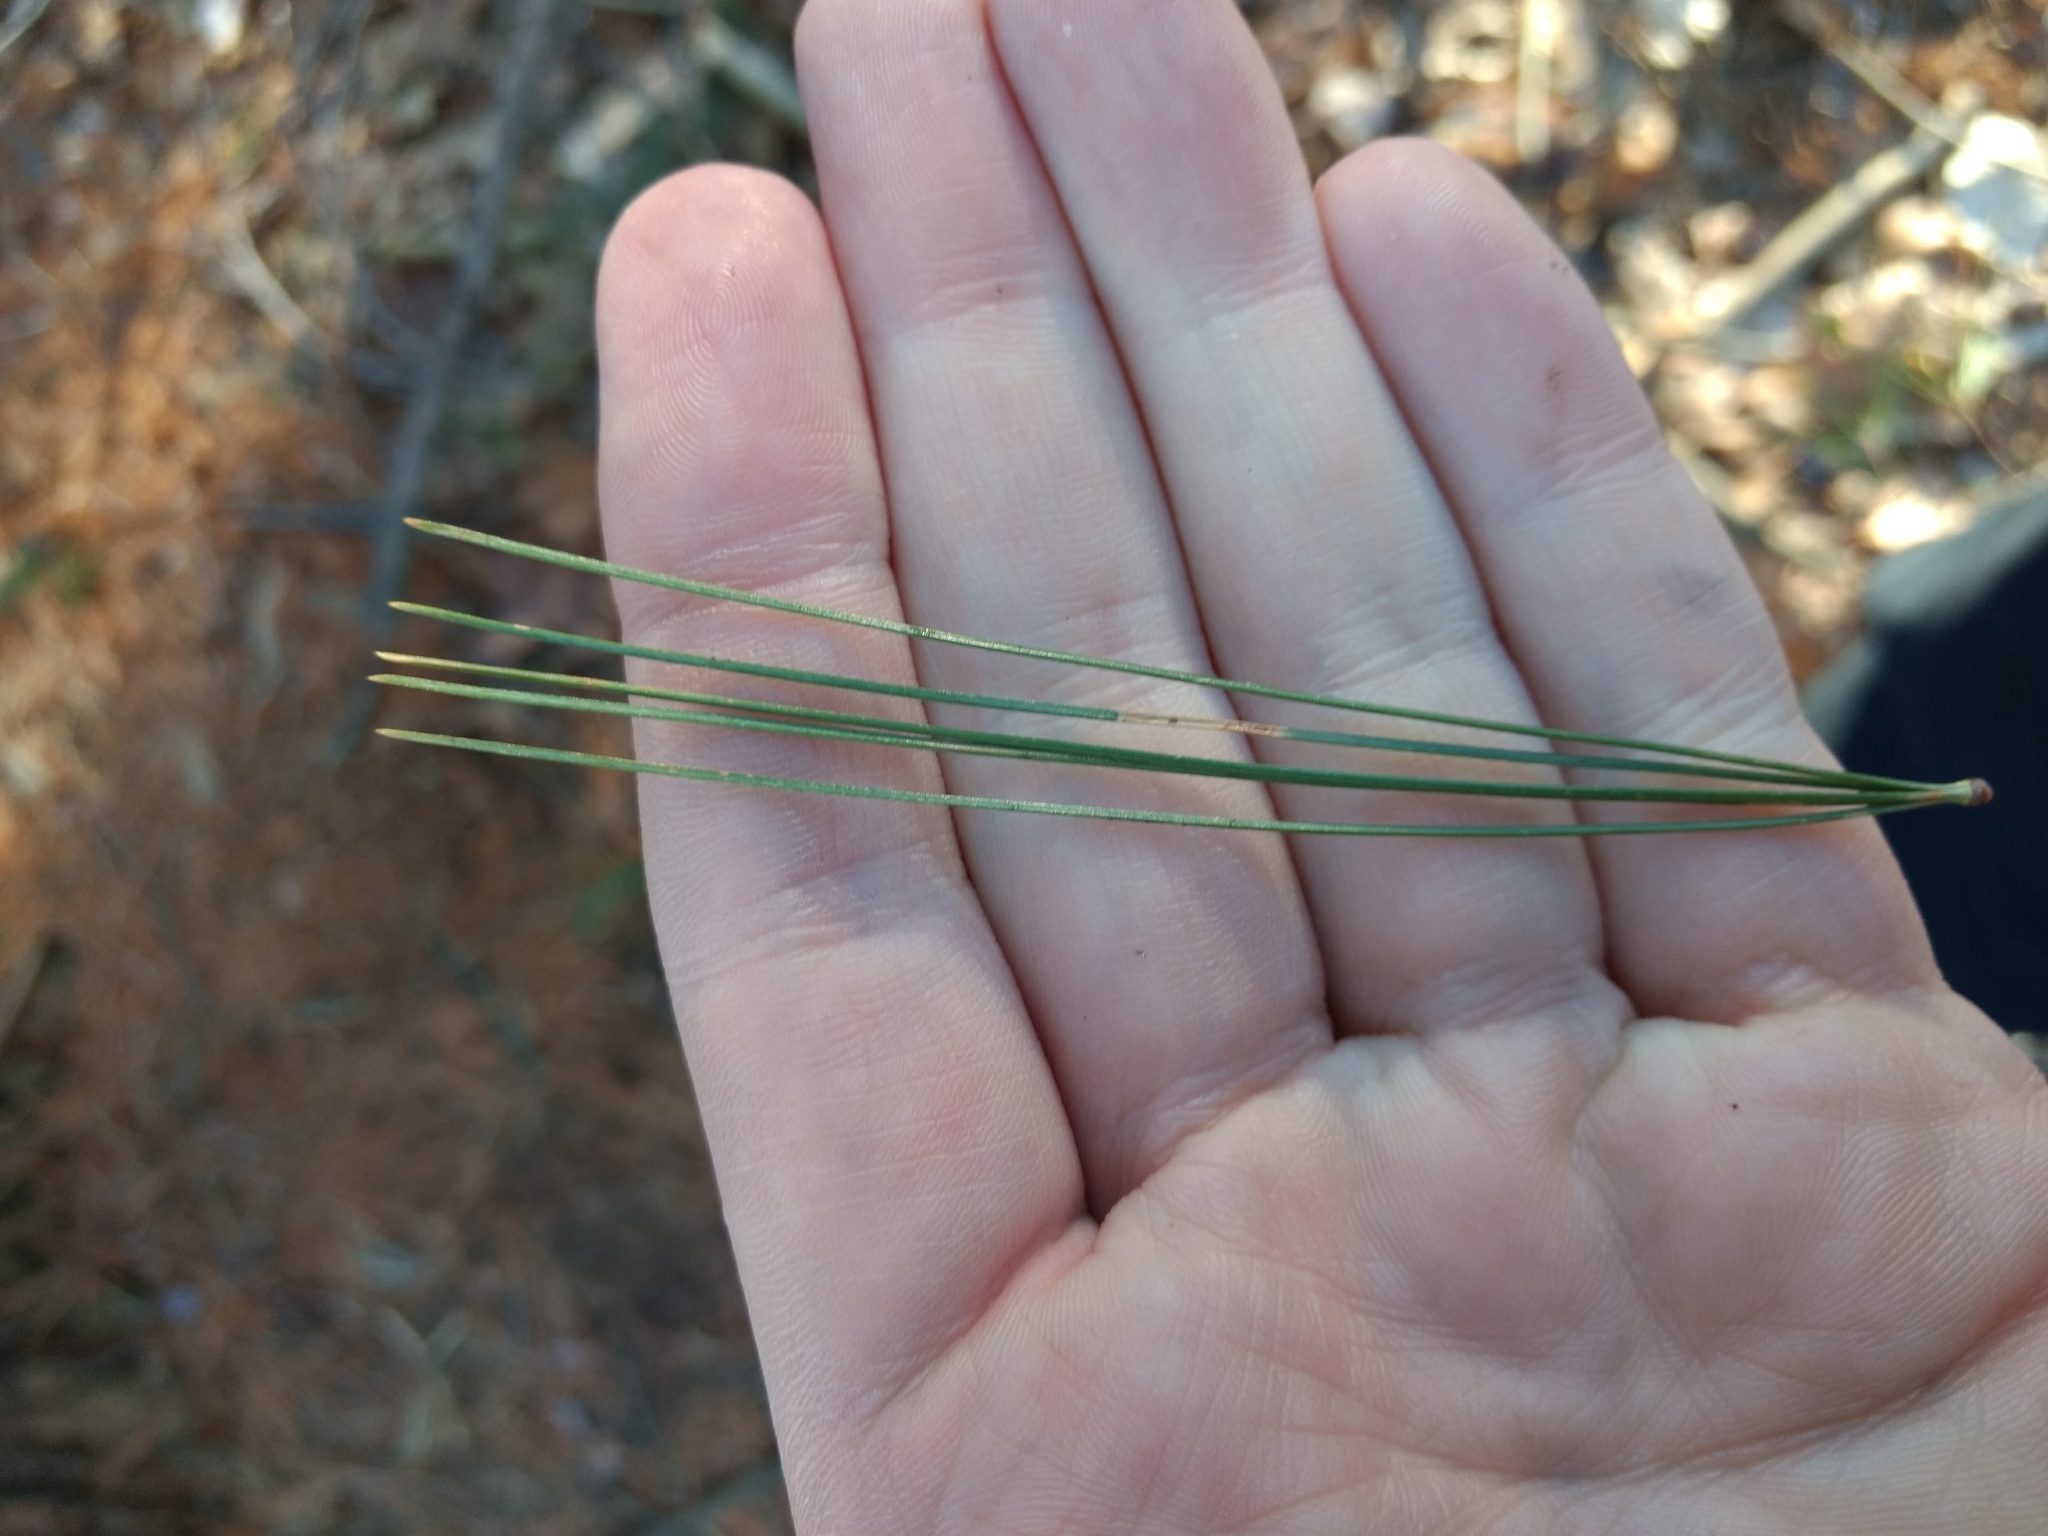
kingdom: Plantae
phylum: Tracheophyta
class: Pinopsida
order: Pinales
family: Pinaceae
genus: Pinus
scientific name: Pinus strobus
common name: Weymouth pine
